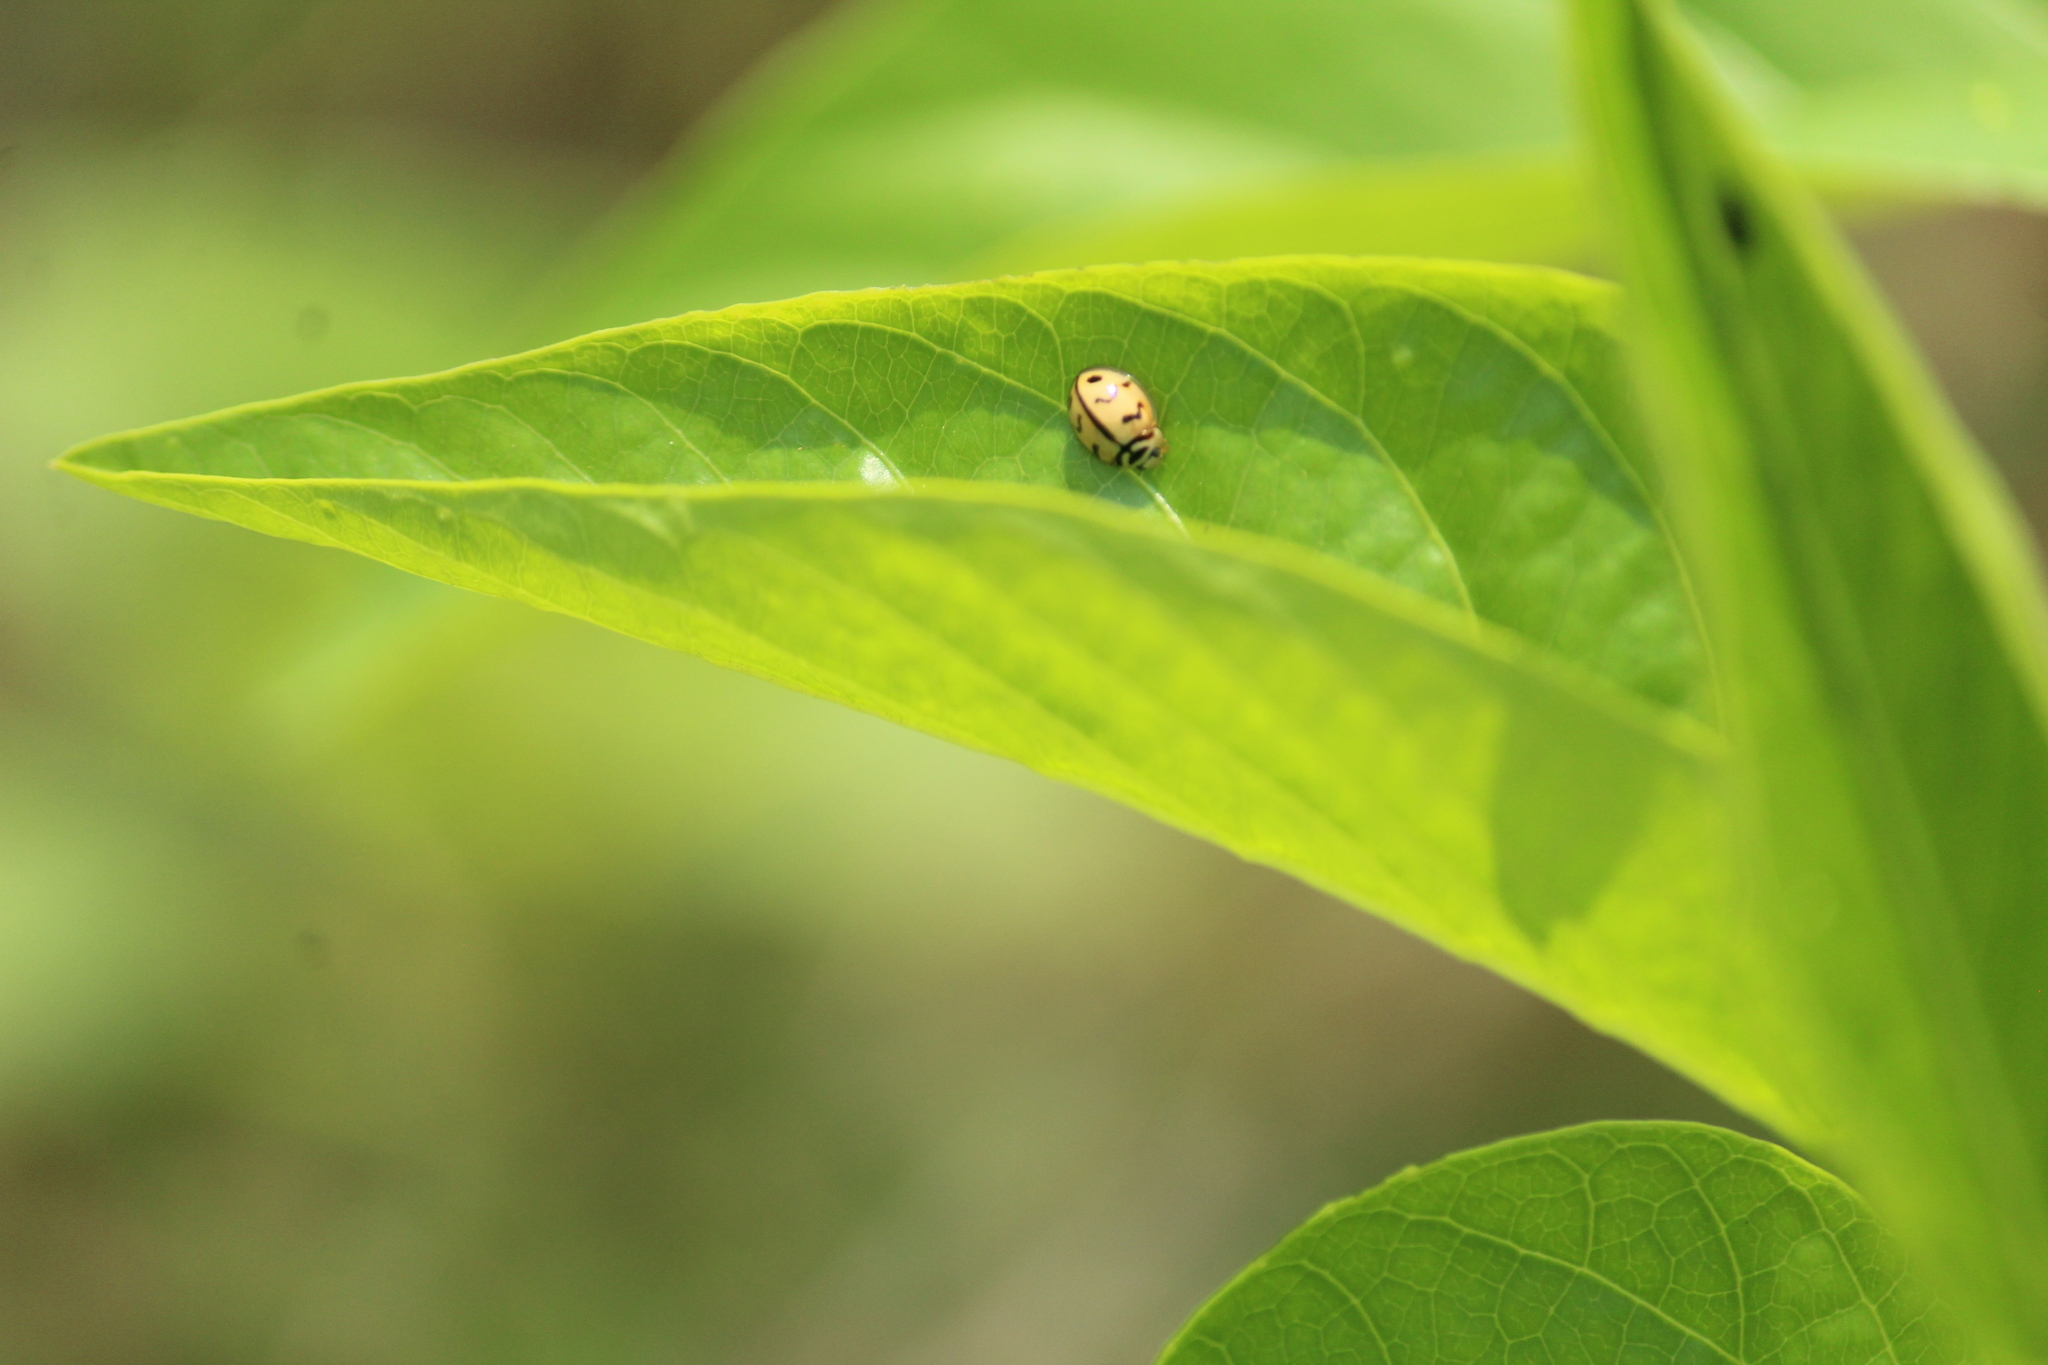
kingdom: Animalia
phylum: Arthropoda
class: Insecta
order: Coleoptera
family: Coccinellidae
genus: Cheilomenes
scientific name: Cheilomenes sexmaculata
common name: Ladybird beetle
